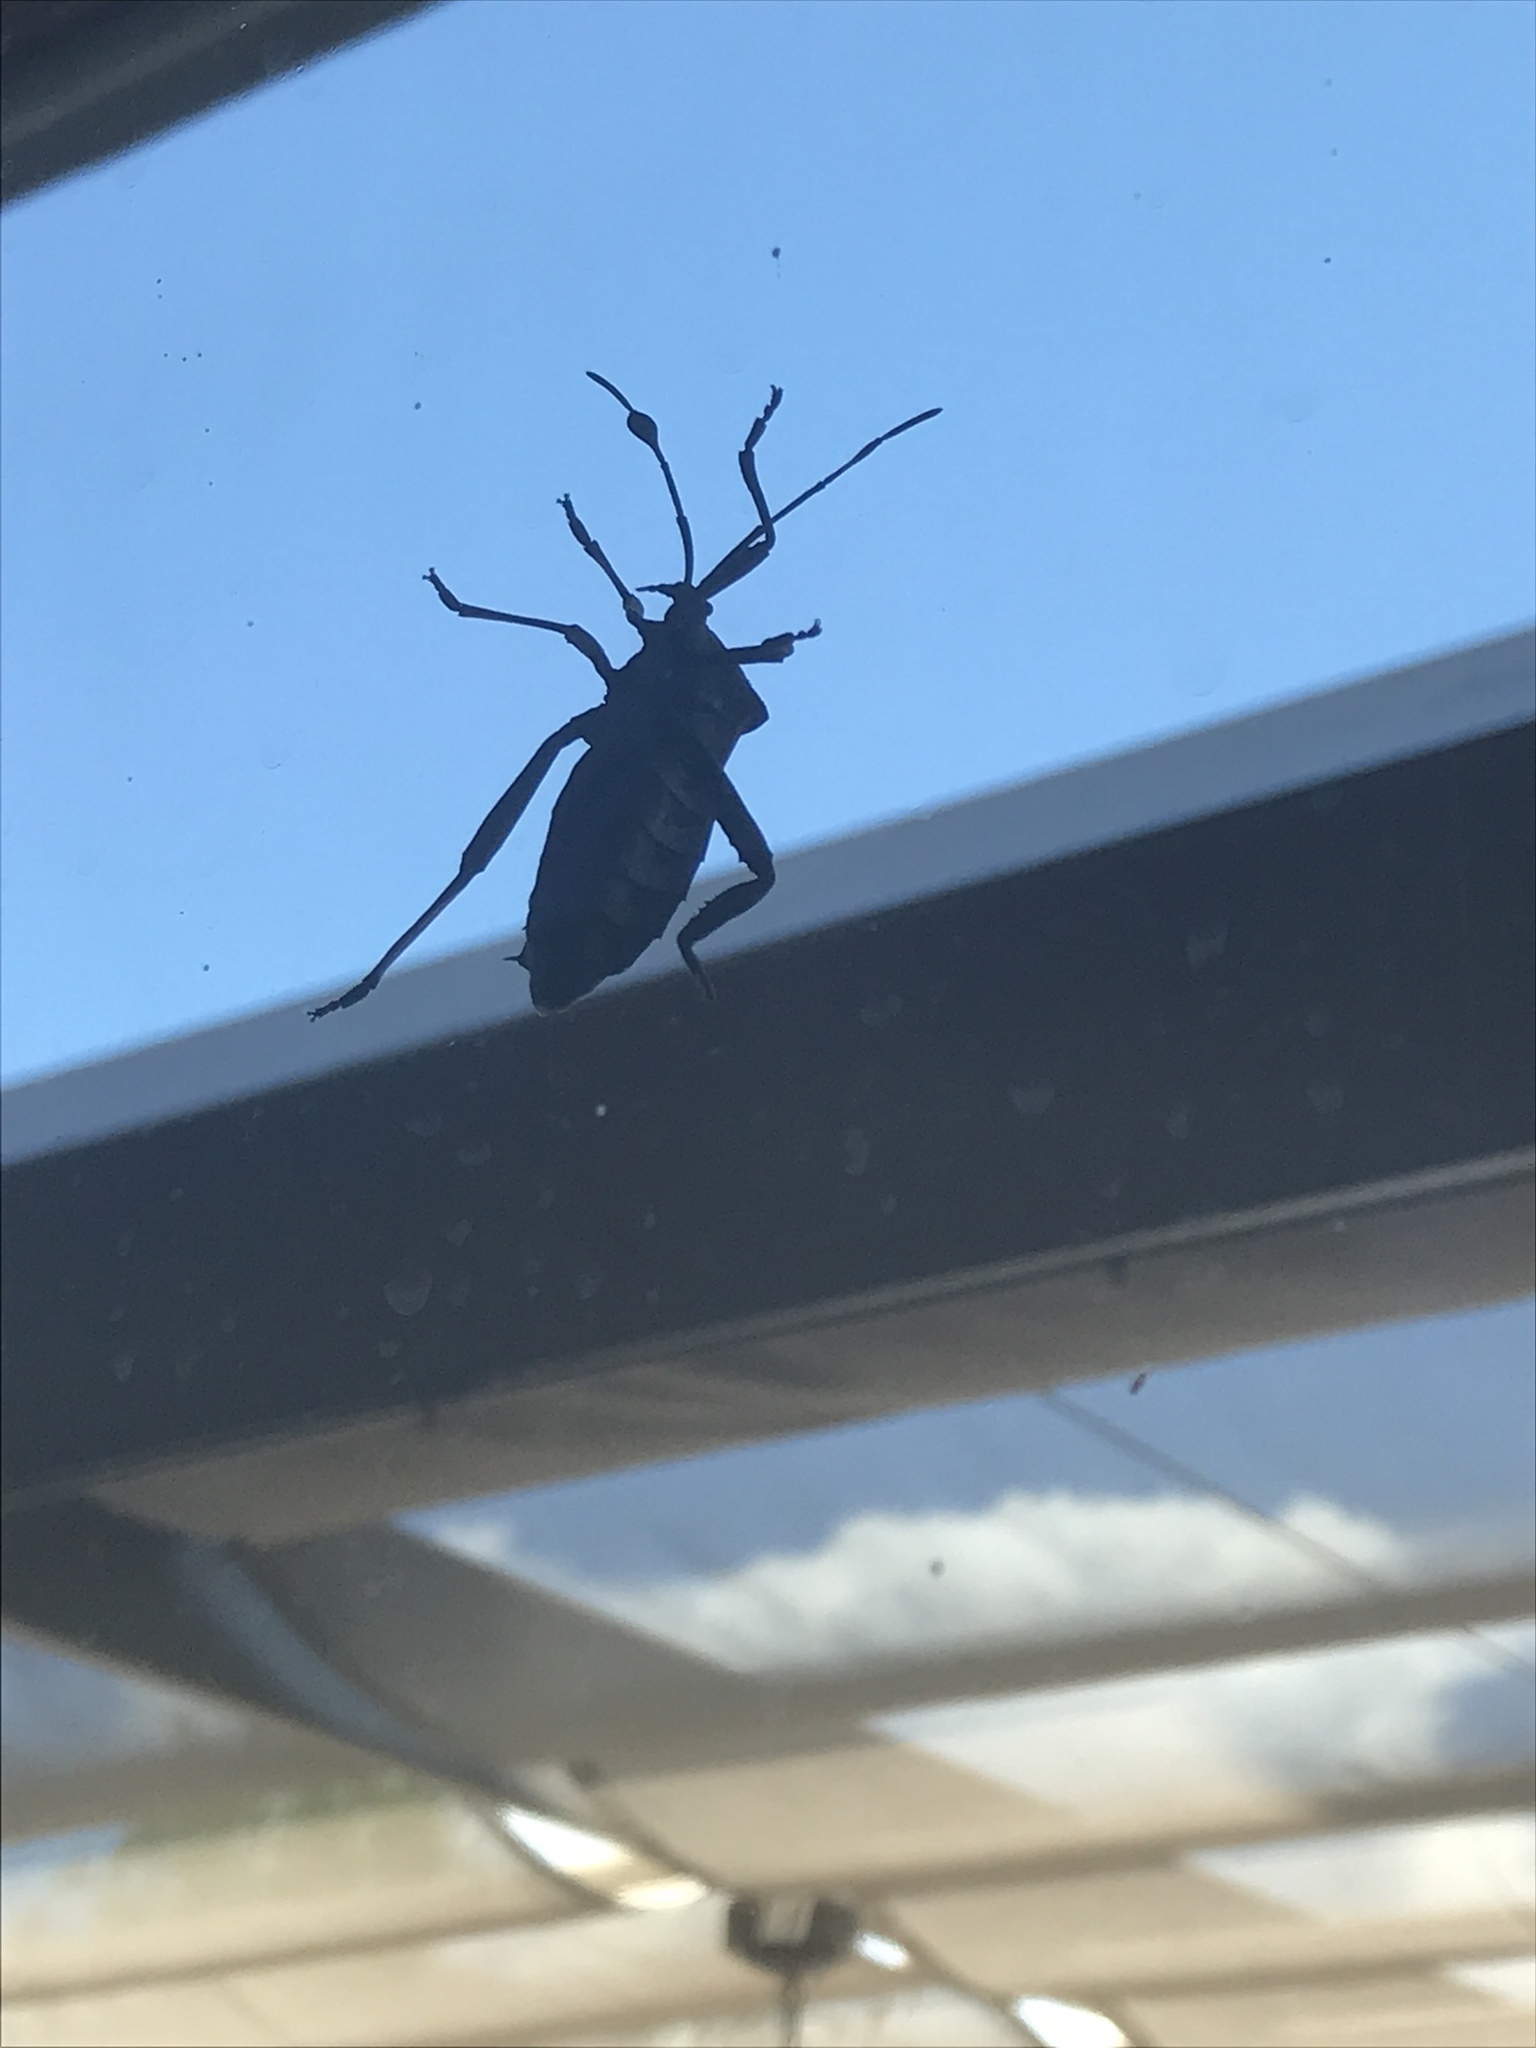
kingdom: Animalia
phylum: Arthropoda
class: Insecta
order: Hemiptera
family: Coreidae
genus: Thasus
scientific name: Thasus neocalifornicus
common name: Giant mesquite bug
